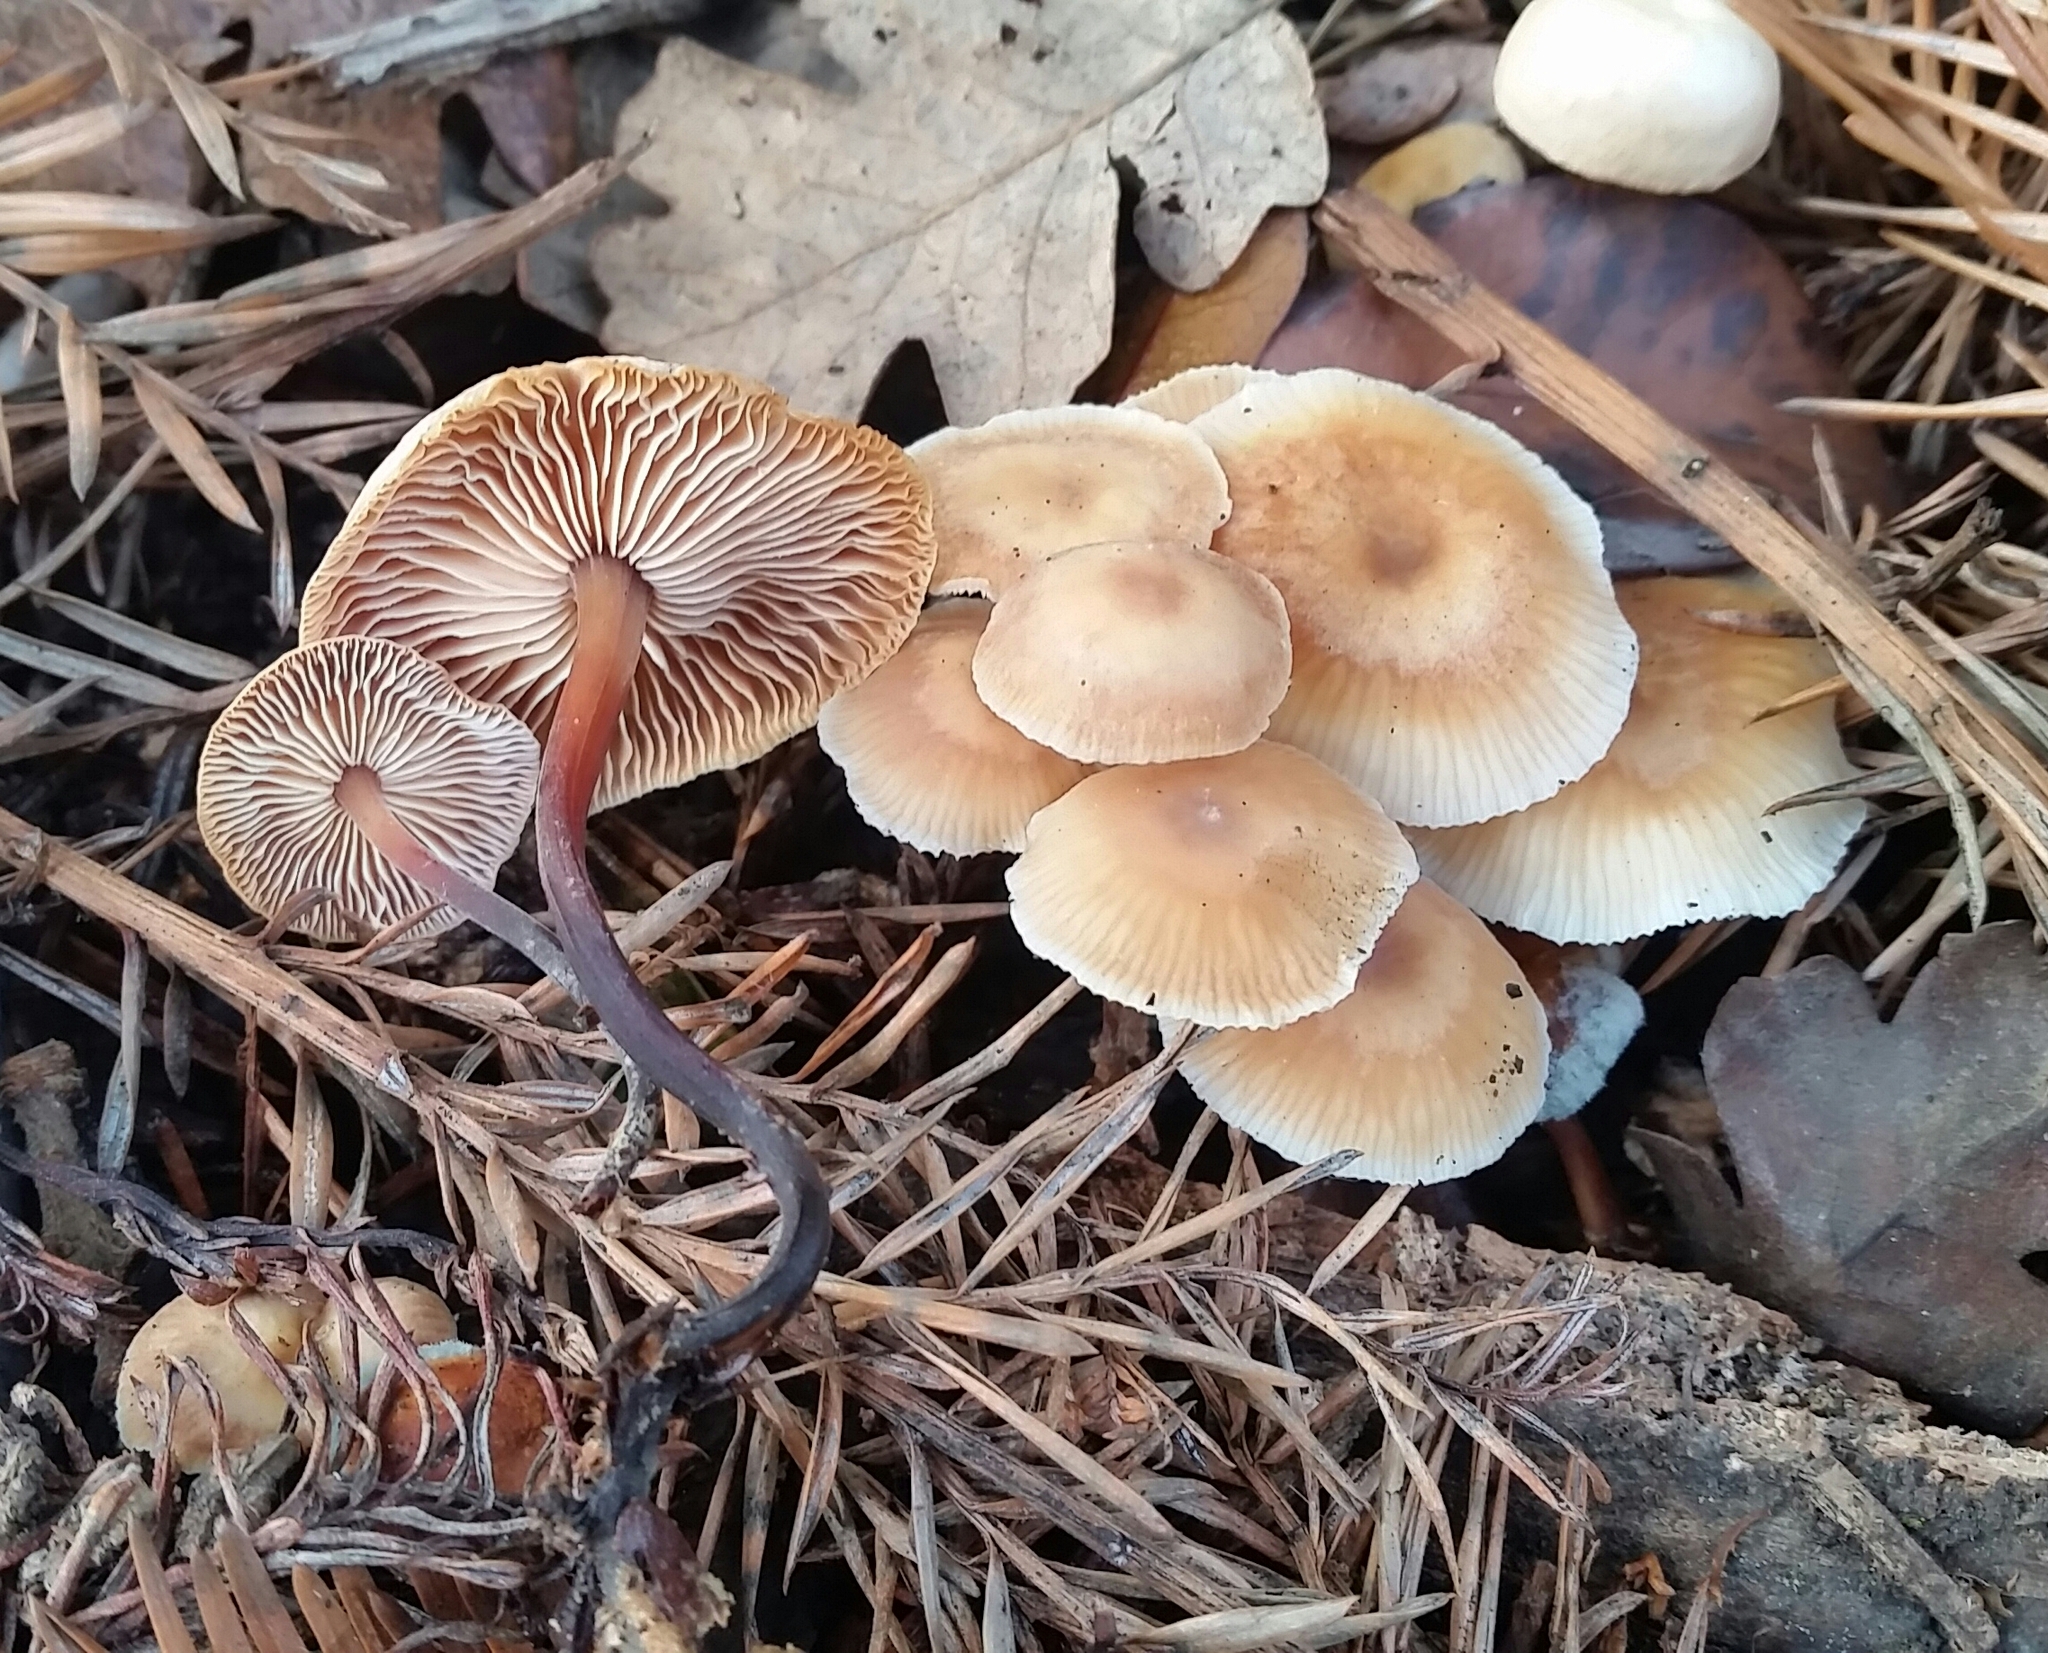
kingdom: Fungi
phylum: Basidiomycota
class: Agaricomycetes
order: Agaricales
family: Omphalotaceae
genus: Gymnopus
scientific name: Gymnopus brassicolens
